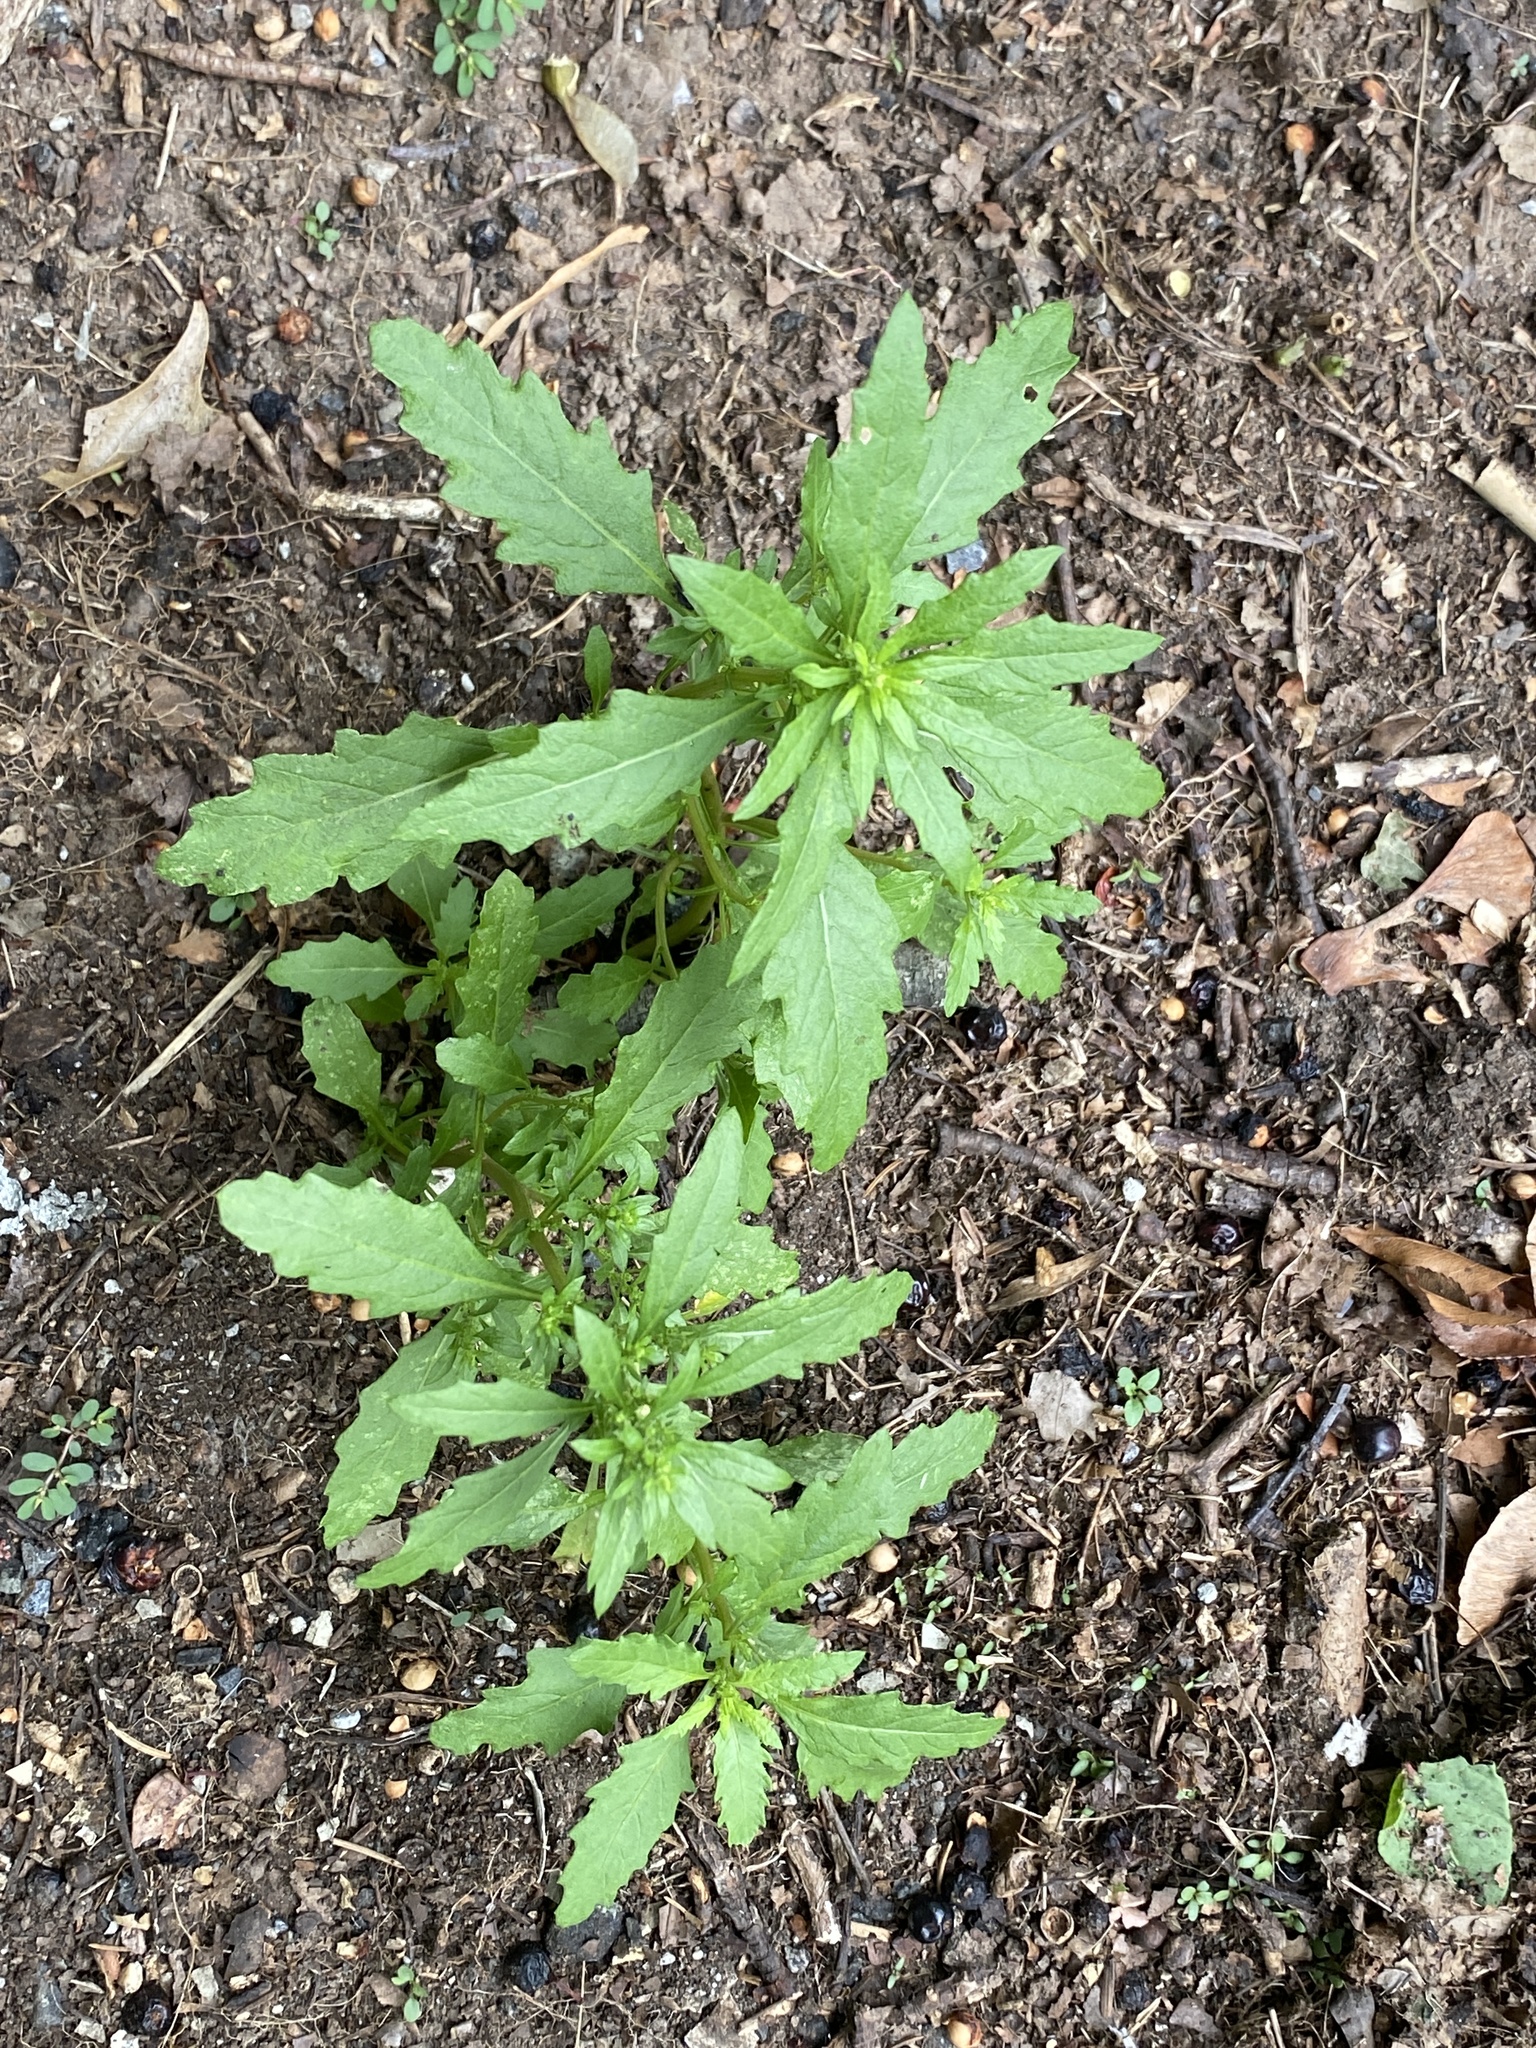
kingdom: Plantae
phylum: Tracheophyta
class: Magnoliopsida
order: Caryophyllales
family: Amaranthaceae
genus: Dysphania
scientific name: Dysphania ambrosioides
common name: Wormseed
